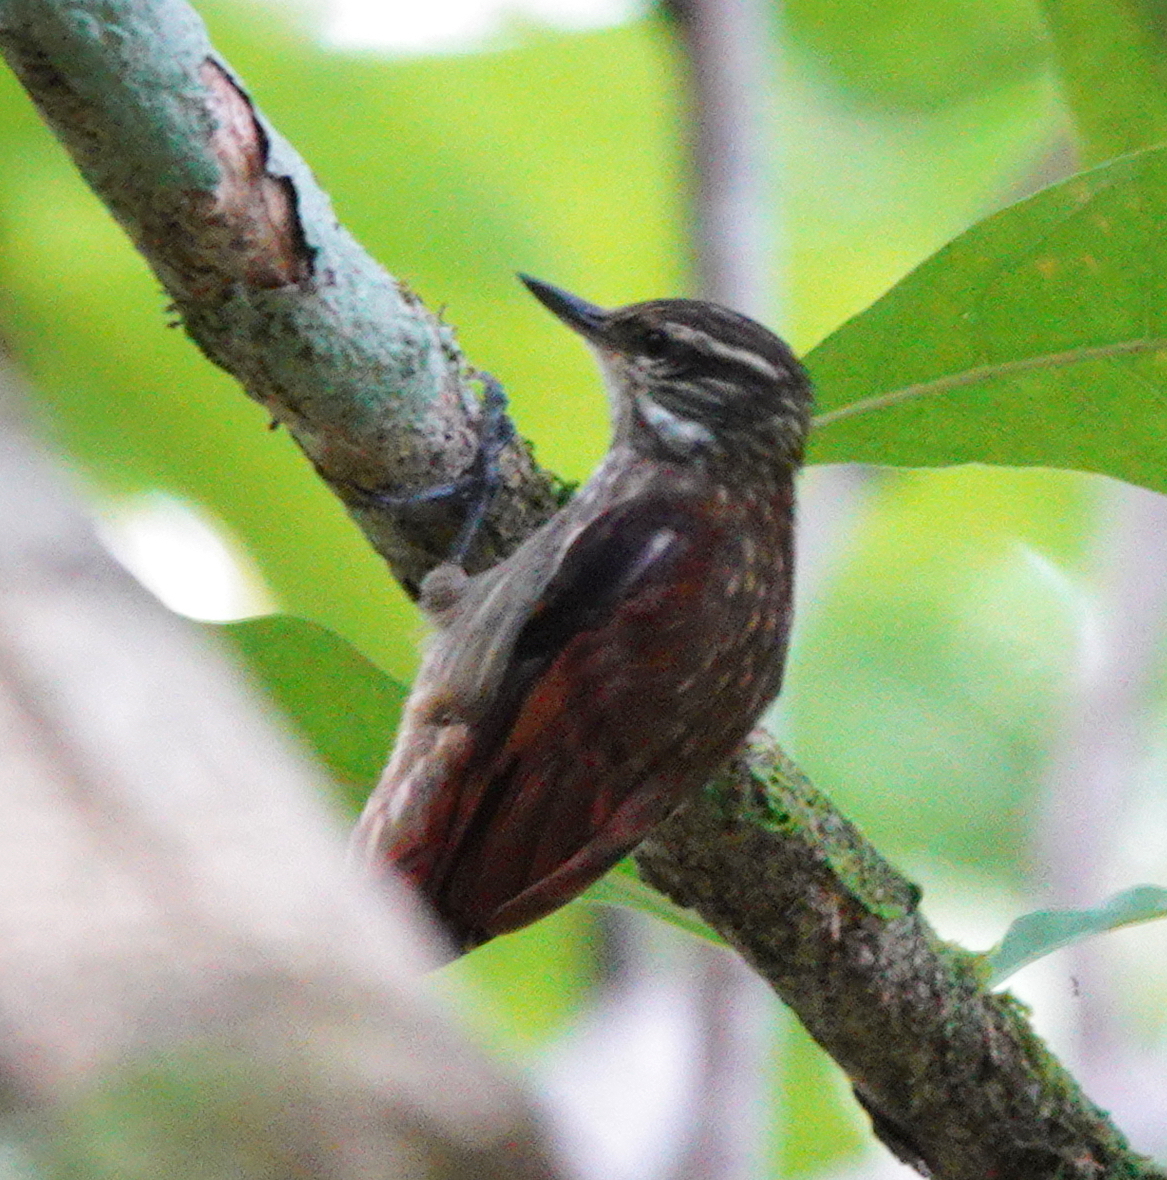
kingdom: Animalia
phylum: Chordata
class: Aves
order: Passeriformes
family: Furnariidae
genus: Xenops
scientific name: Xenops tenuirostris
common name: Slender-billed xenops
